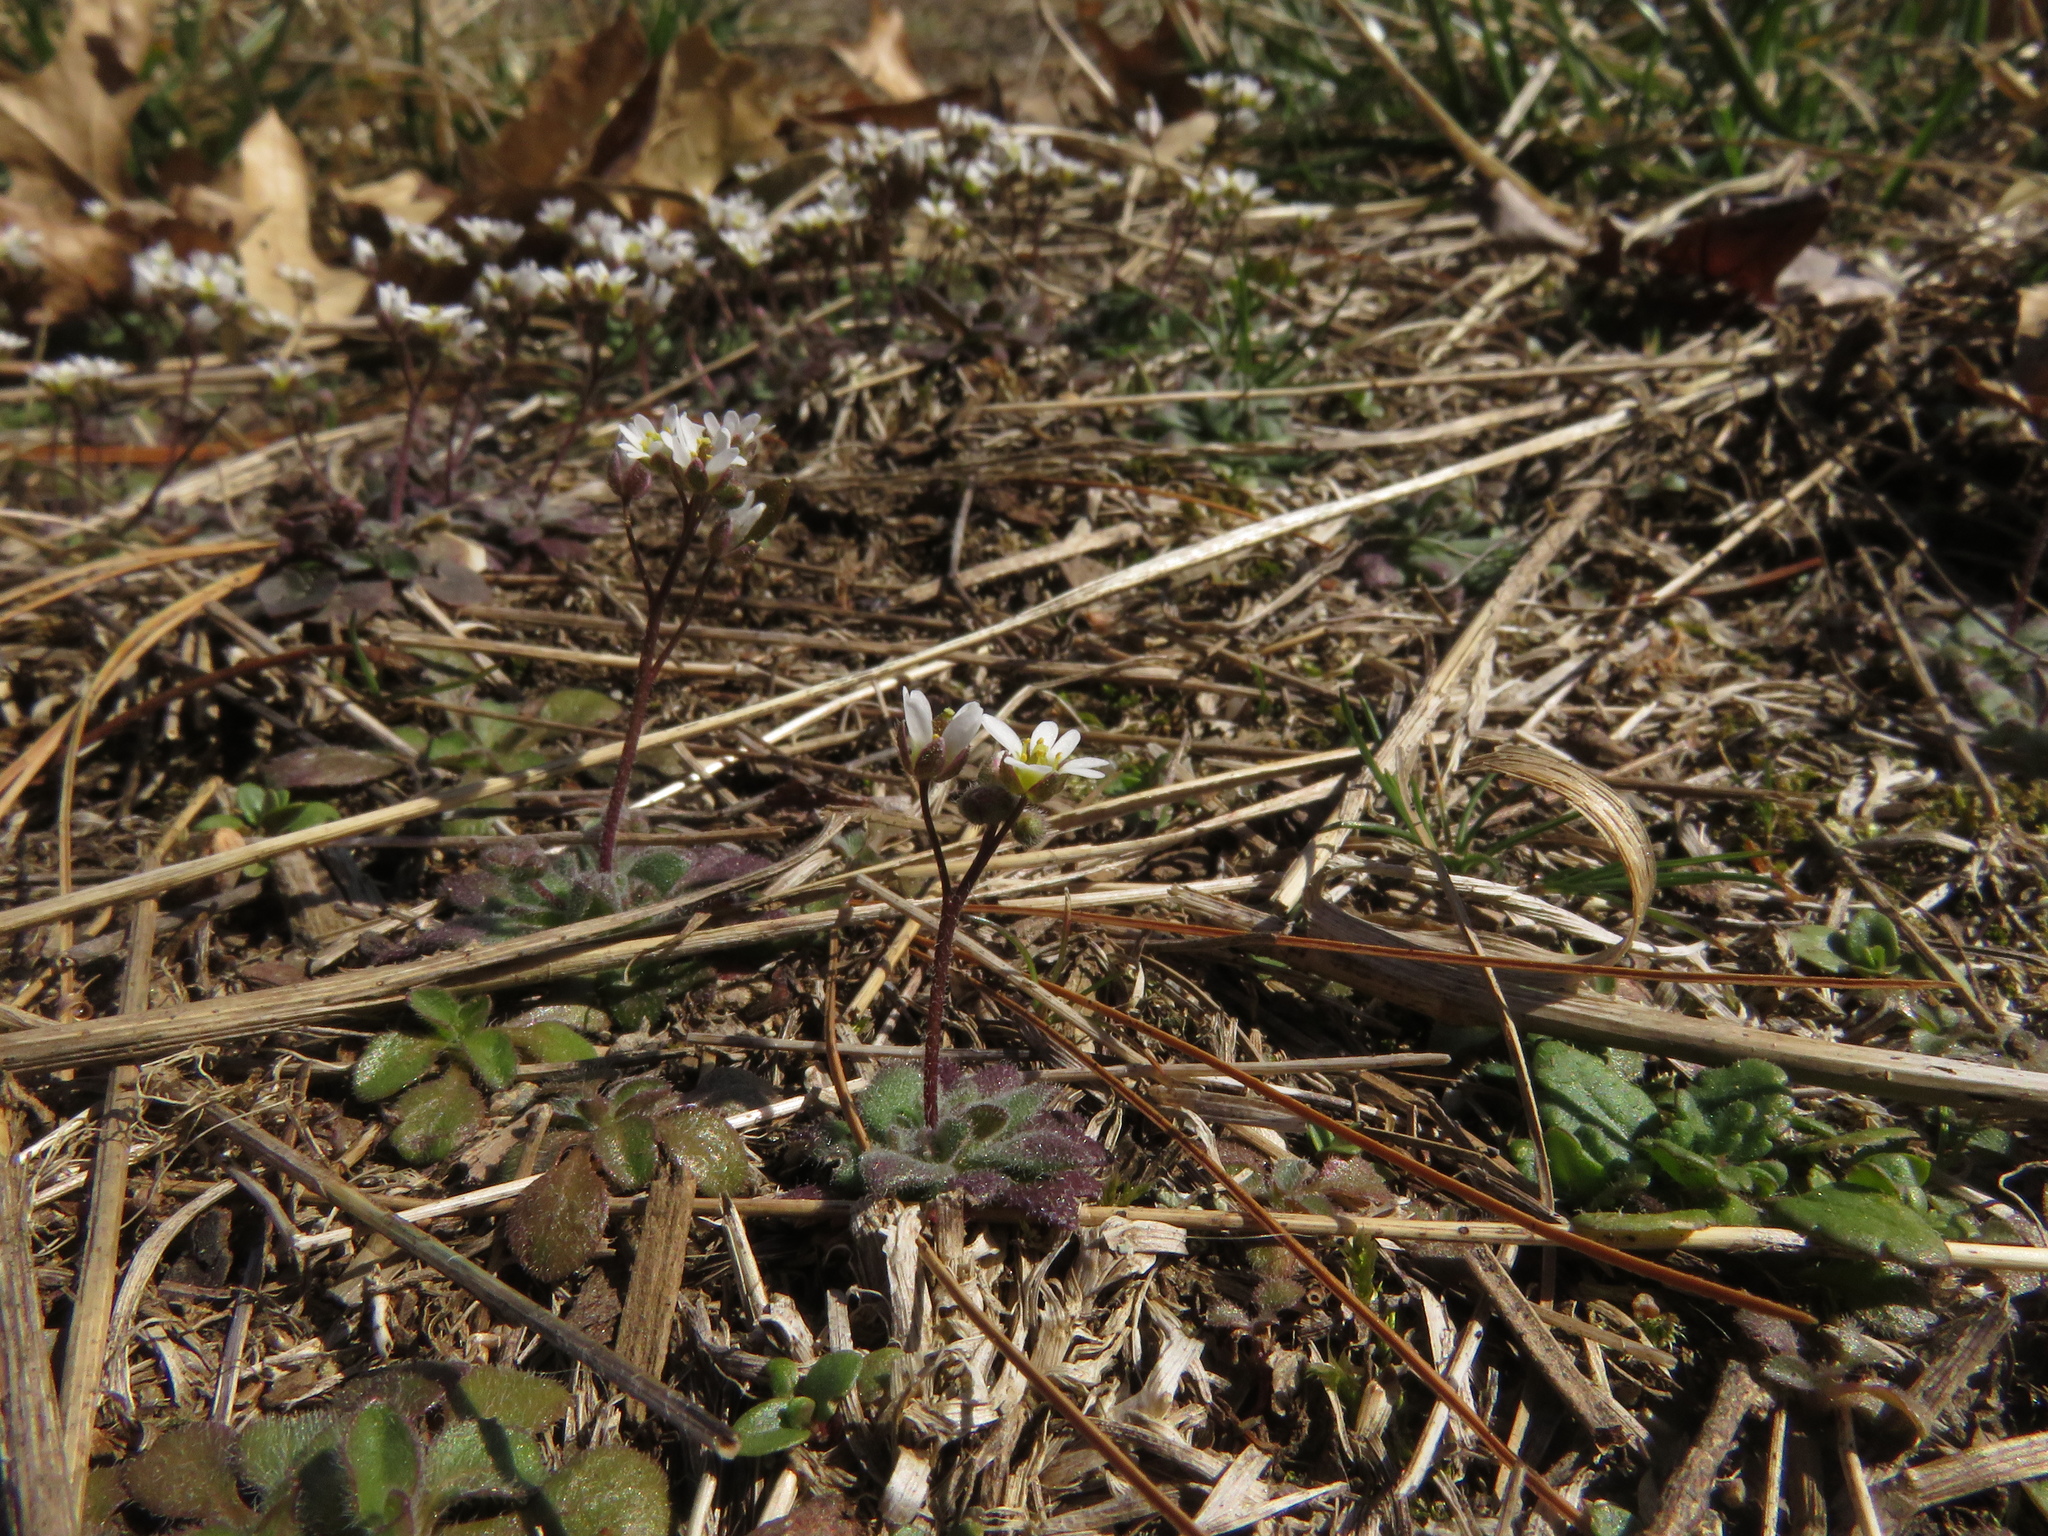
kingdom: Plantae
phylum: Tracheophyta
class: Magnoliopsida
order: Brassicales
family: Brassicaceae
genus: Draba
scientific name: Draba verna
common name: Spring draba
